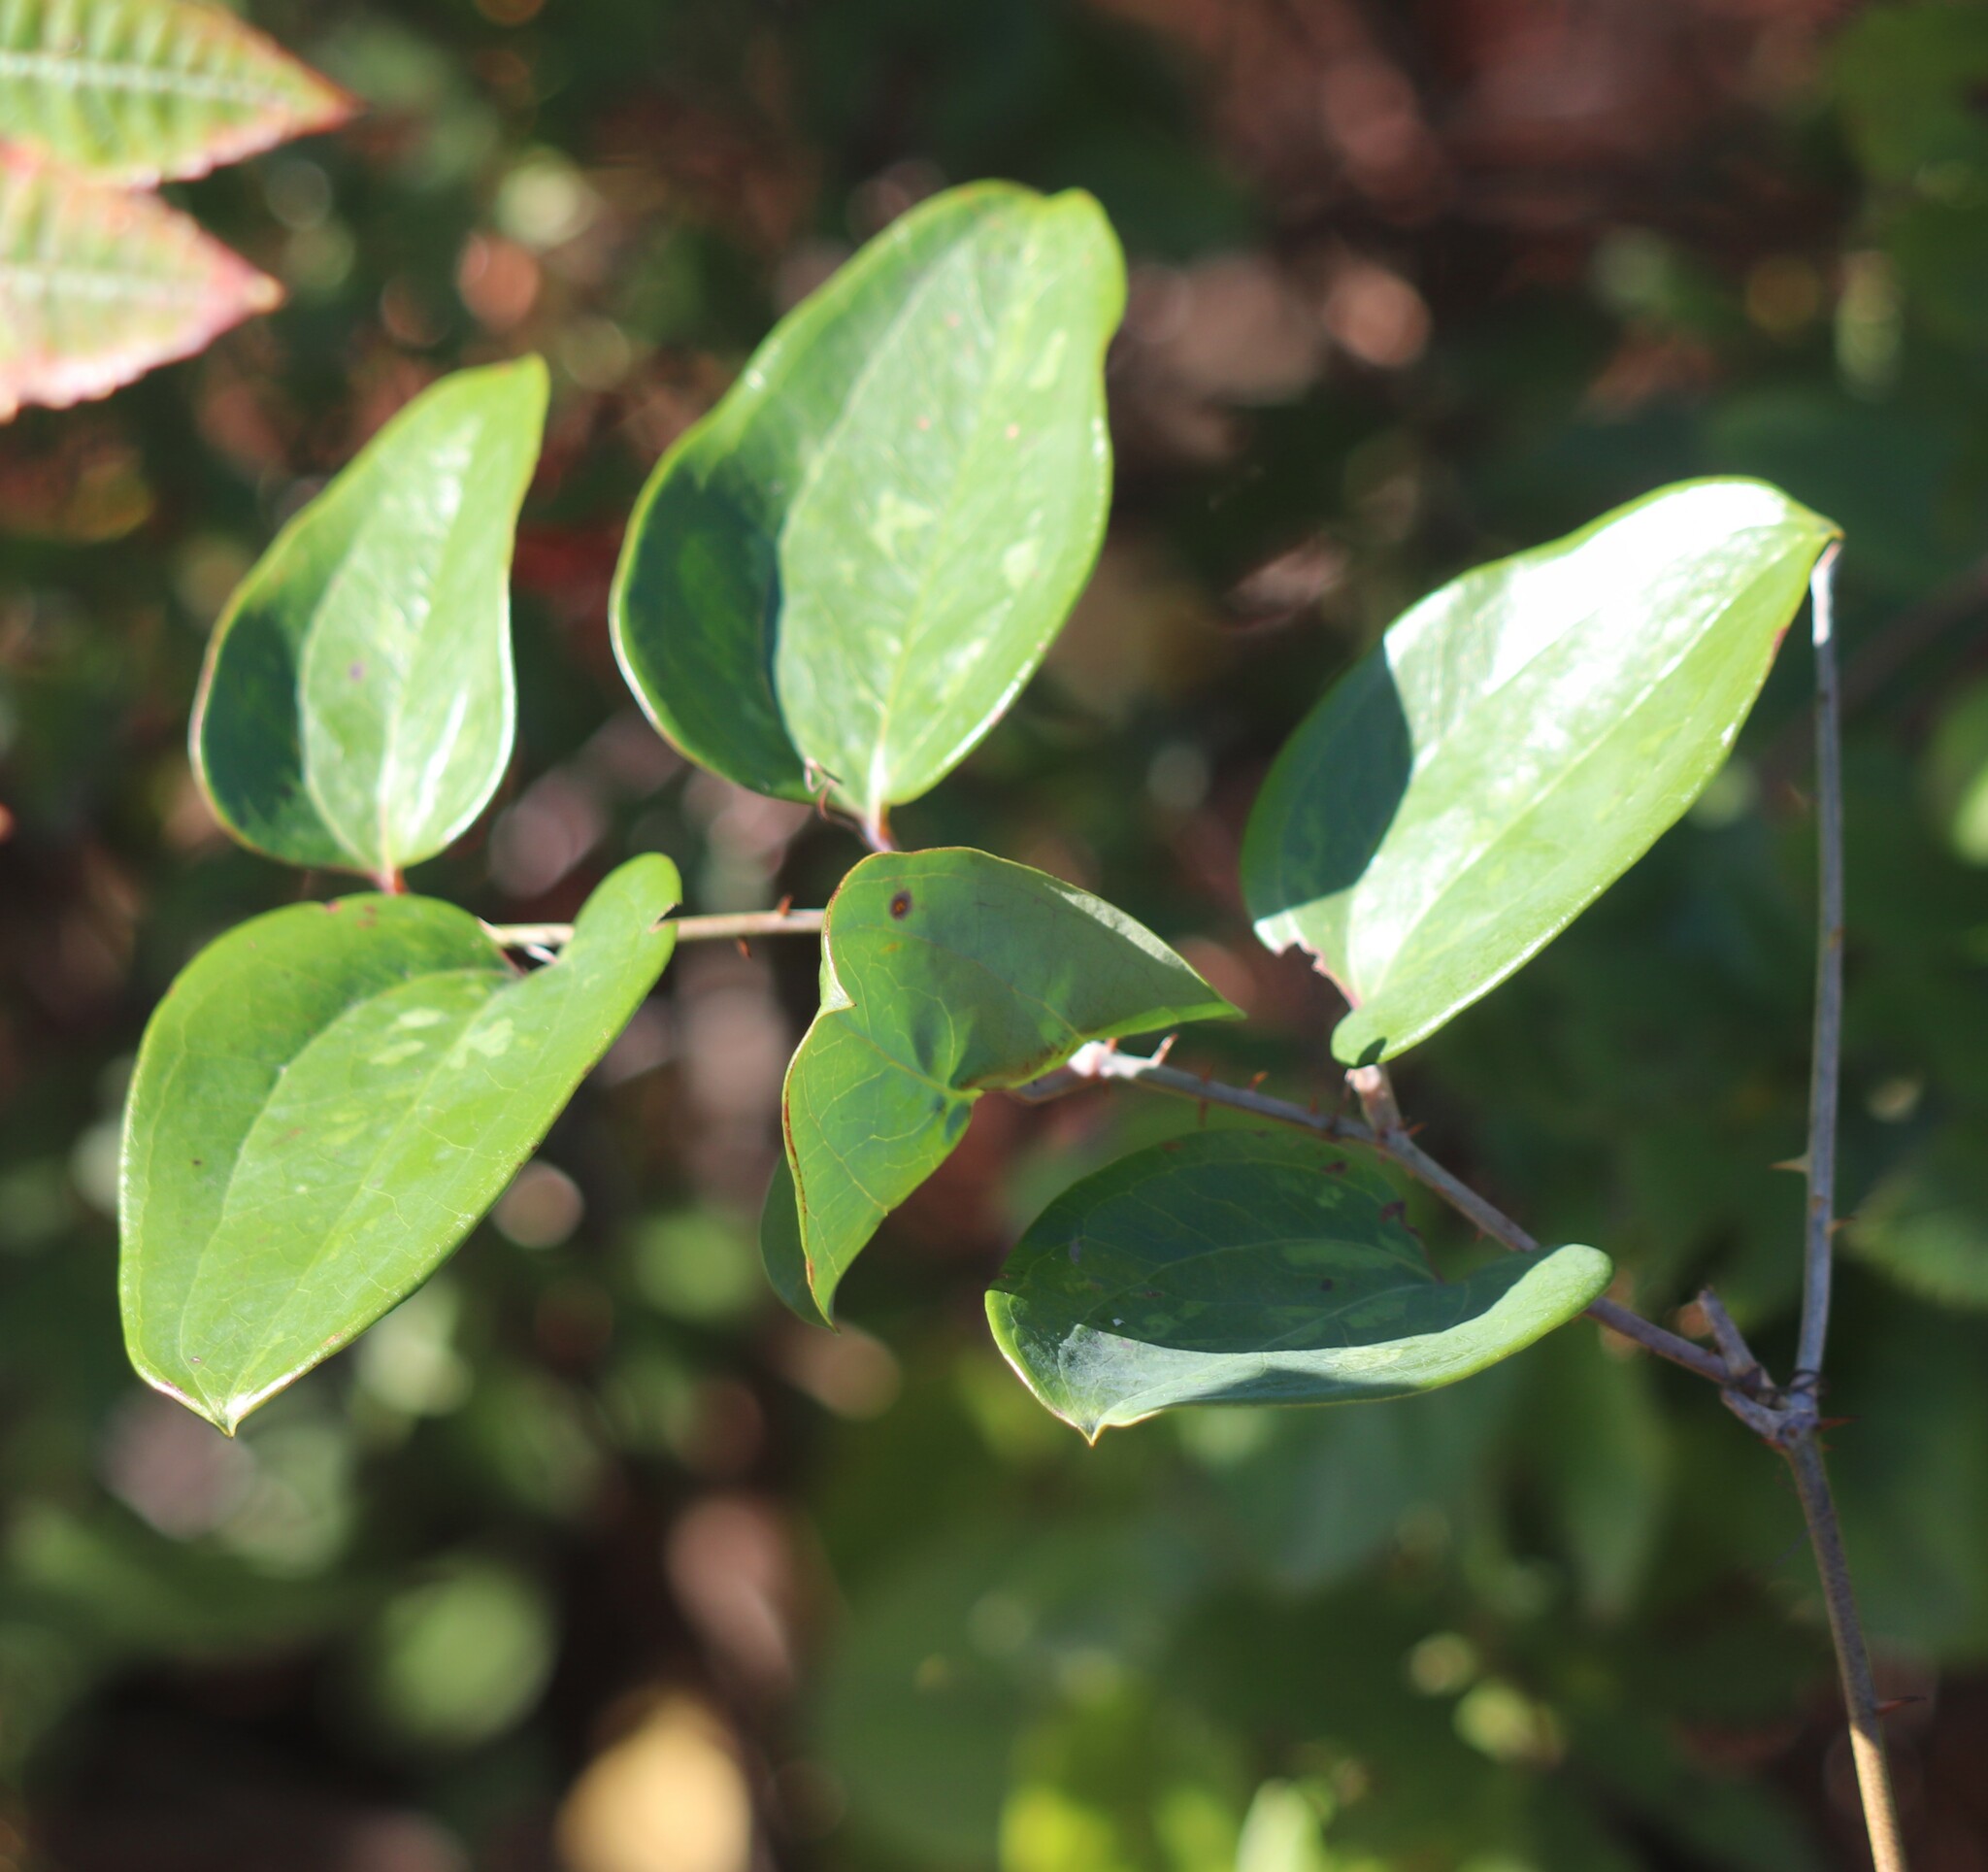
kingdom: Plantae
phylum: Tracheophyta
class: Liliopsida
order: Liliales
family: Smilacaceae
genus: Smilax
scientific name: Smilax glauca
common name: Cat greenbrier
